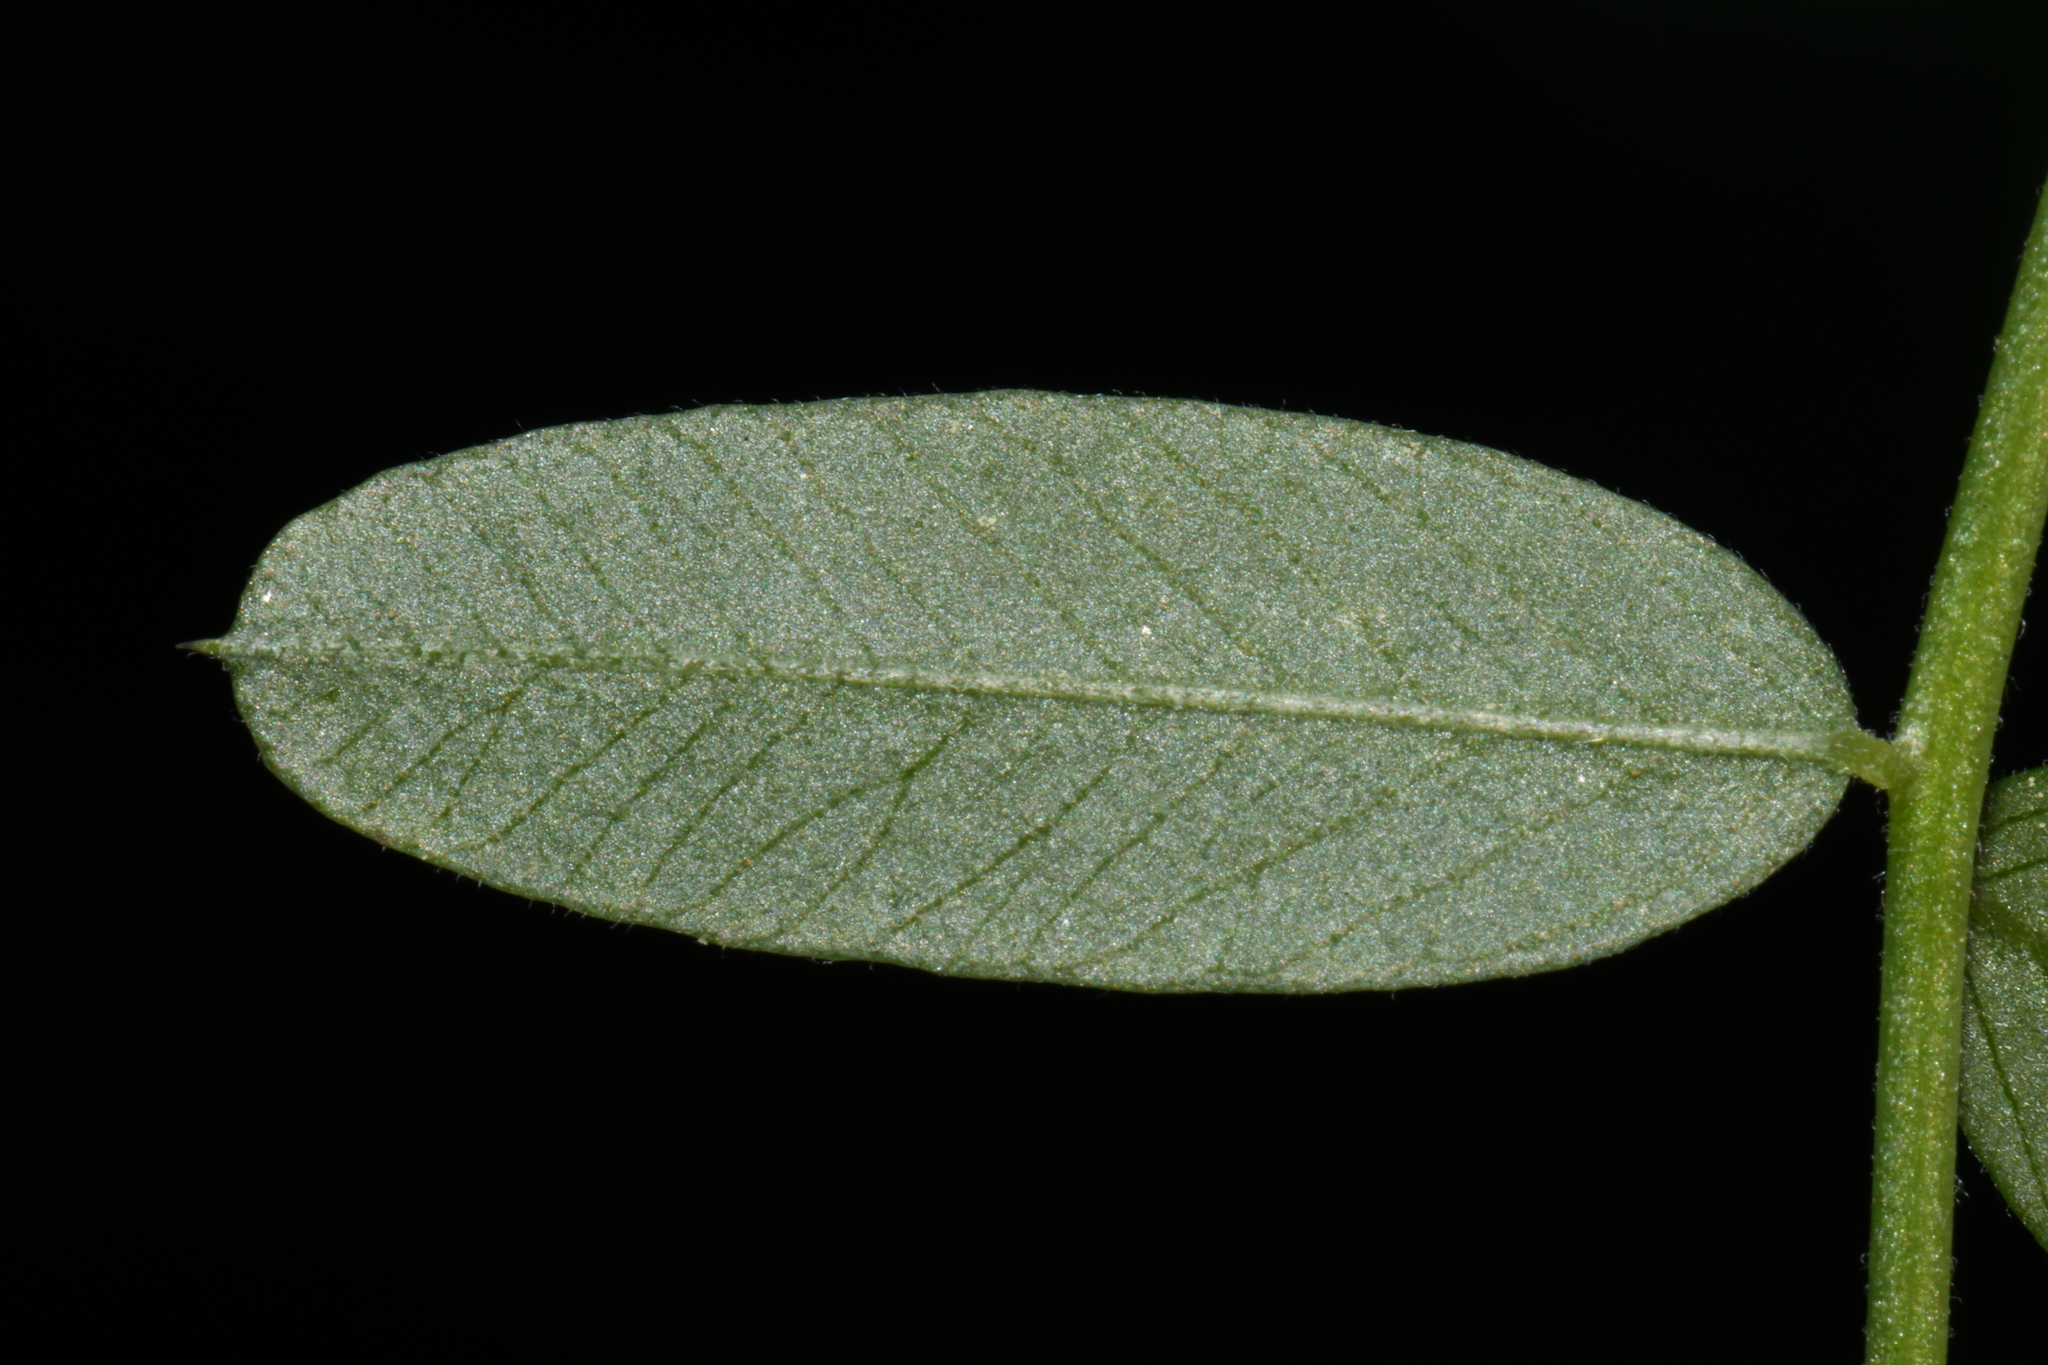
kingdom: Plantae
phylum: Tracheophyta
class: Magnoliopsida
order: Fabales
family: Fabaceae
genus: Vicia
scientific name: Vicia americana
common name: American vetch
